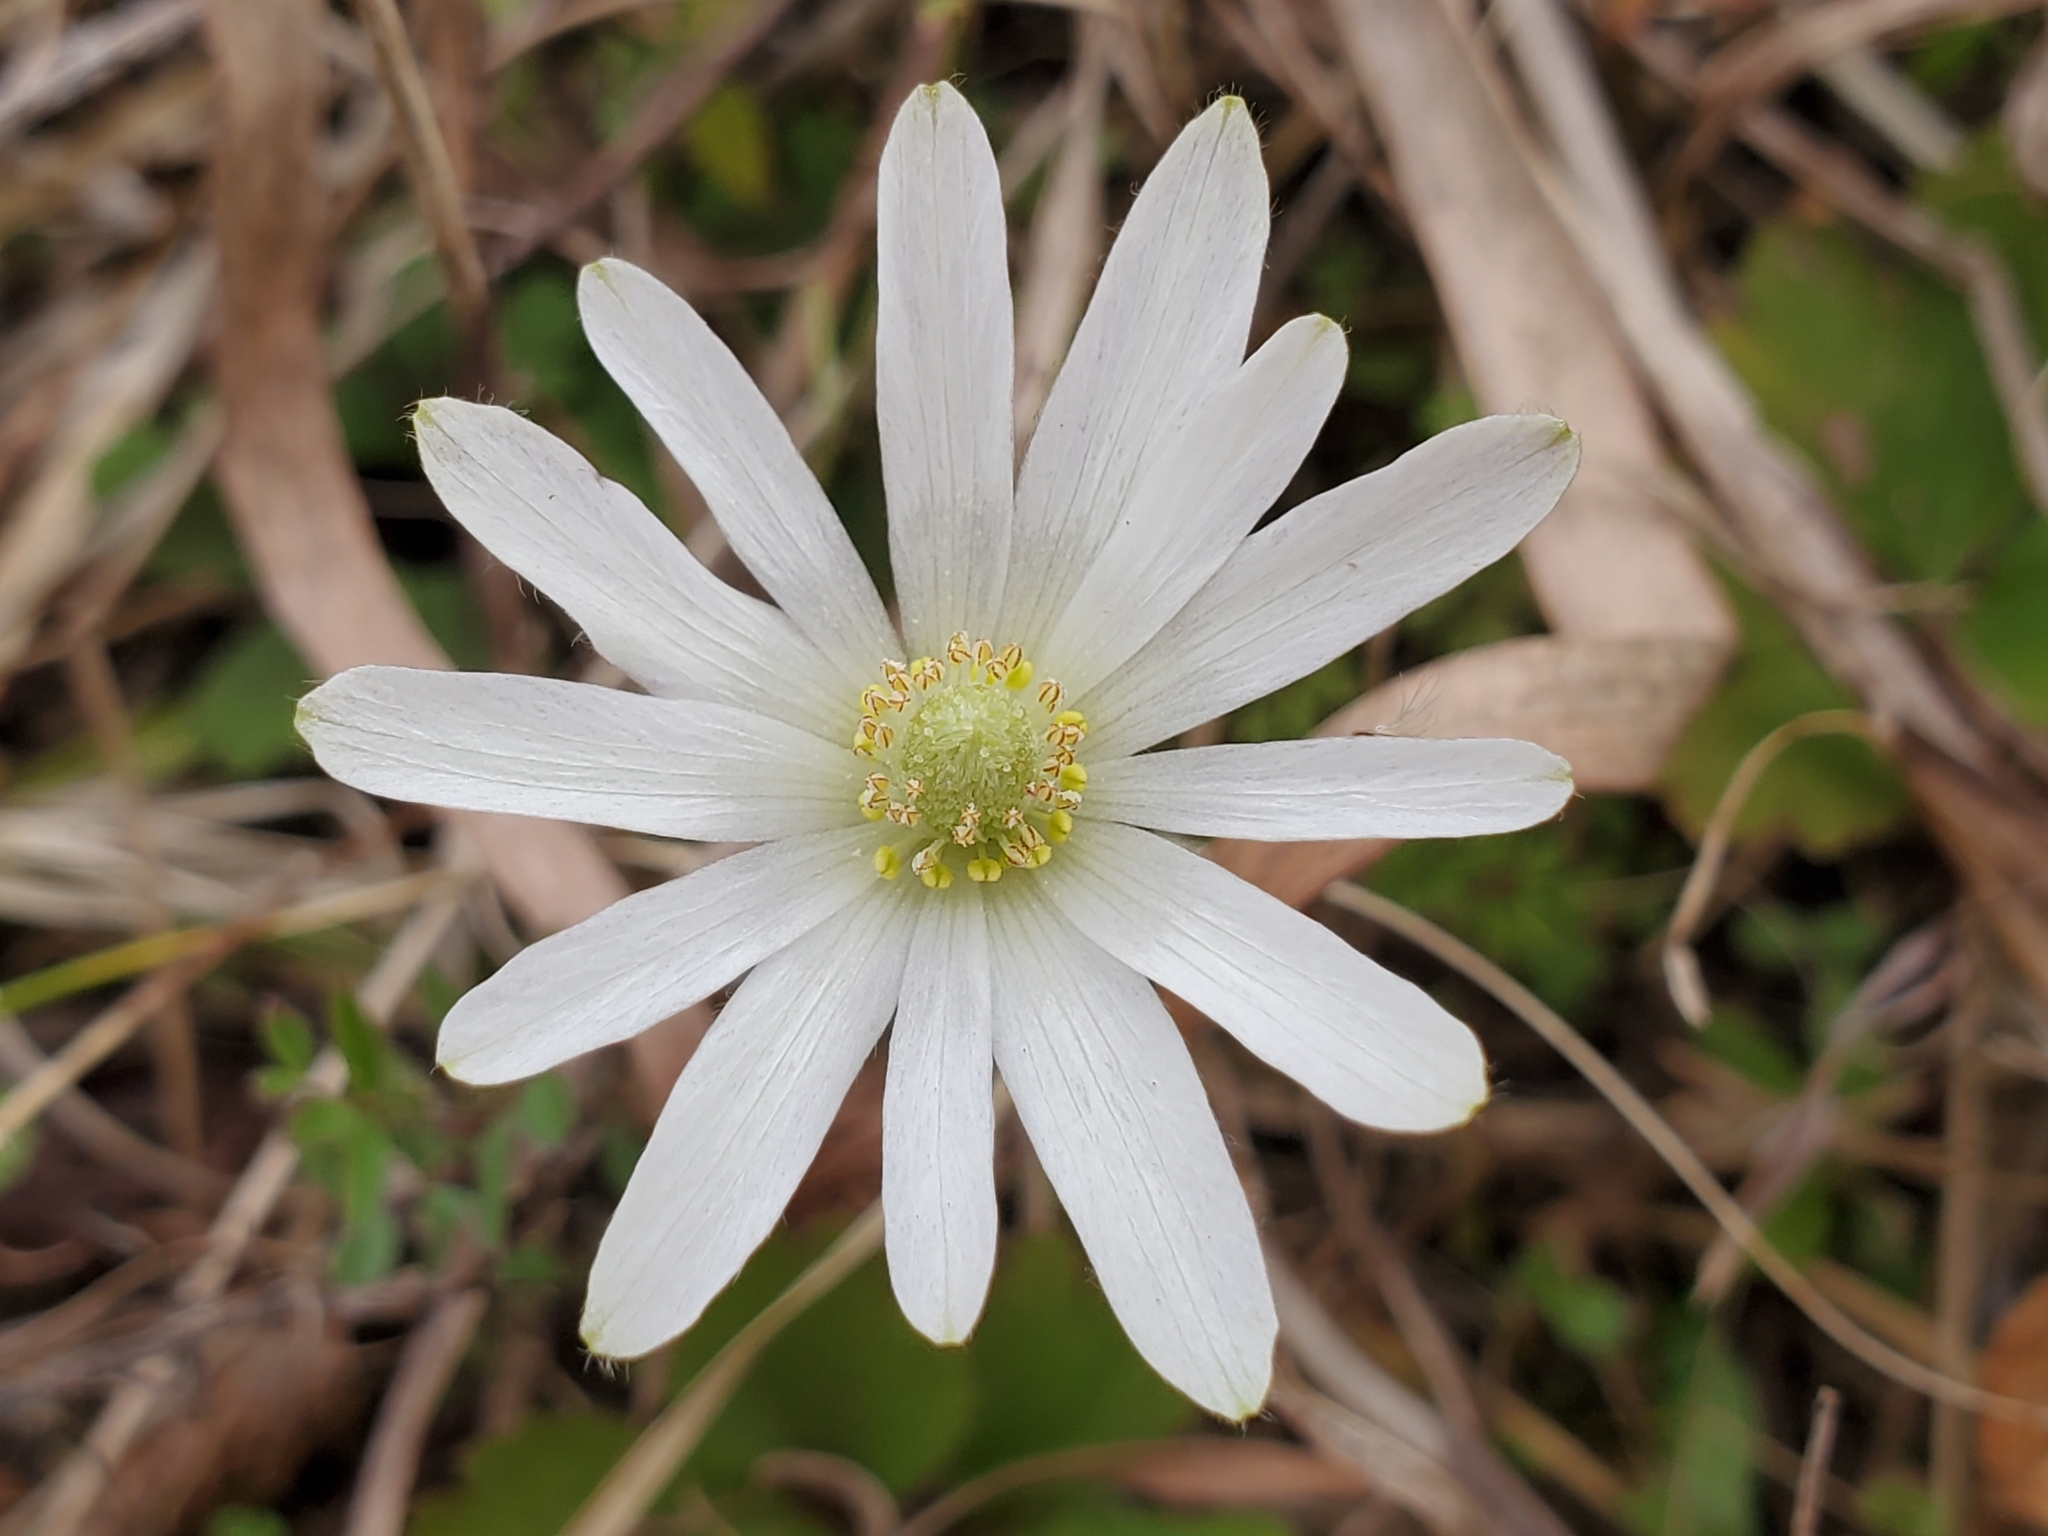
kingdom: Plantae
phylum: Tracheophyta
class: Magnoliopsida
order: Ranunculales
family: Ranunculaceae
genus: Anemone
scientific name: Anemone berlandieri
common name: Ten-petal anemone
